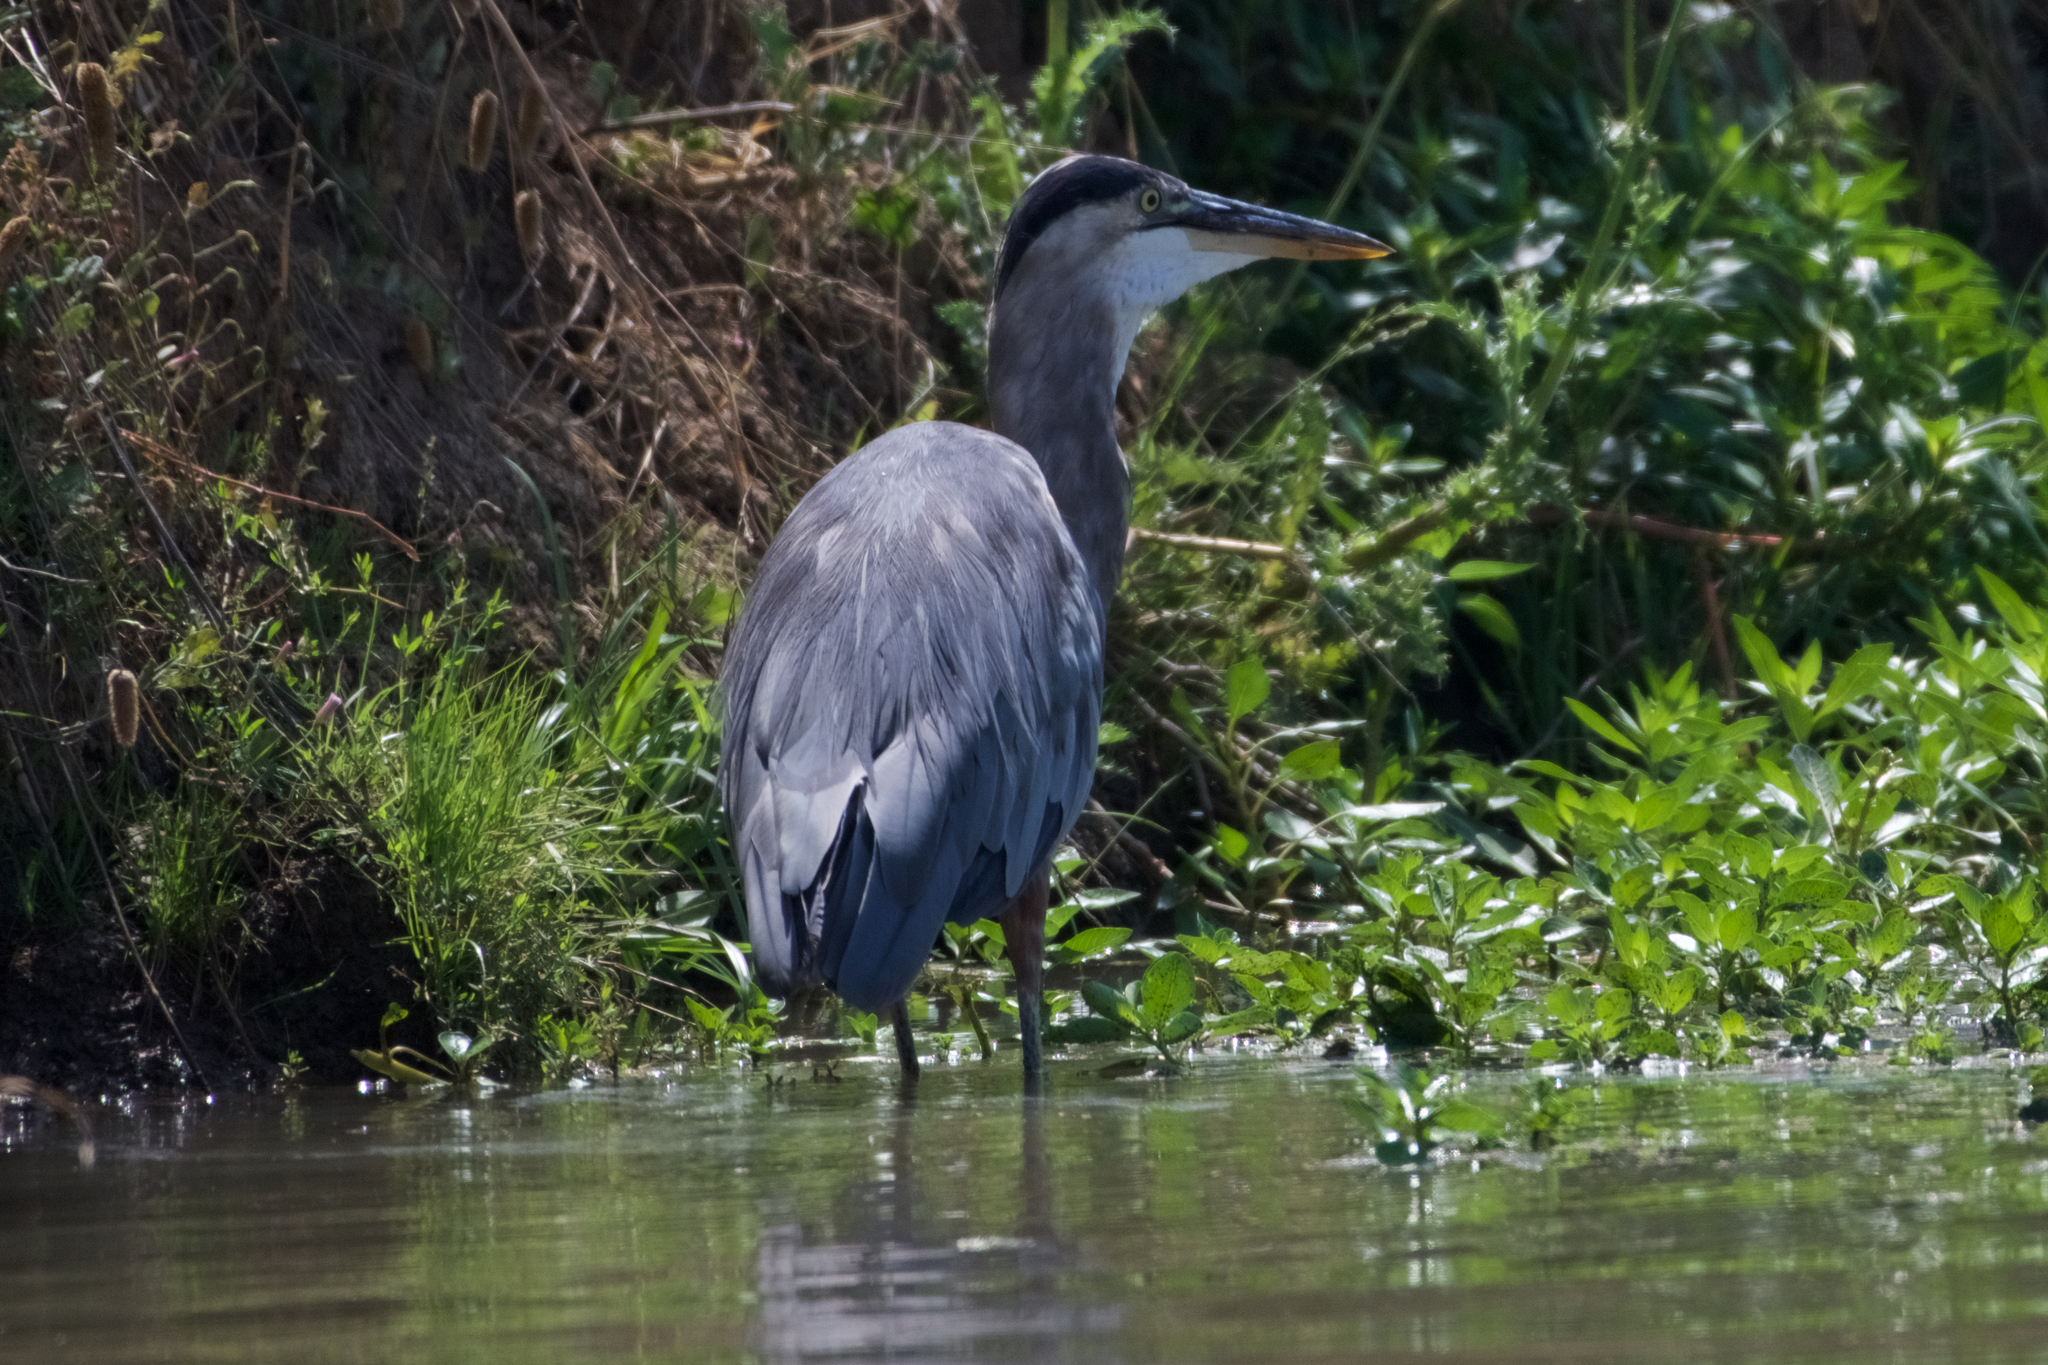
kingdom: Animalia
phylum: Chordata
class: Aves
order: Pelecaniformes
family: Ardeidae
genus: Ardea
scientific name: Ardea herodias
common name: Great blue heron
